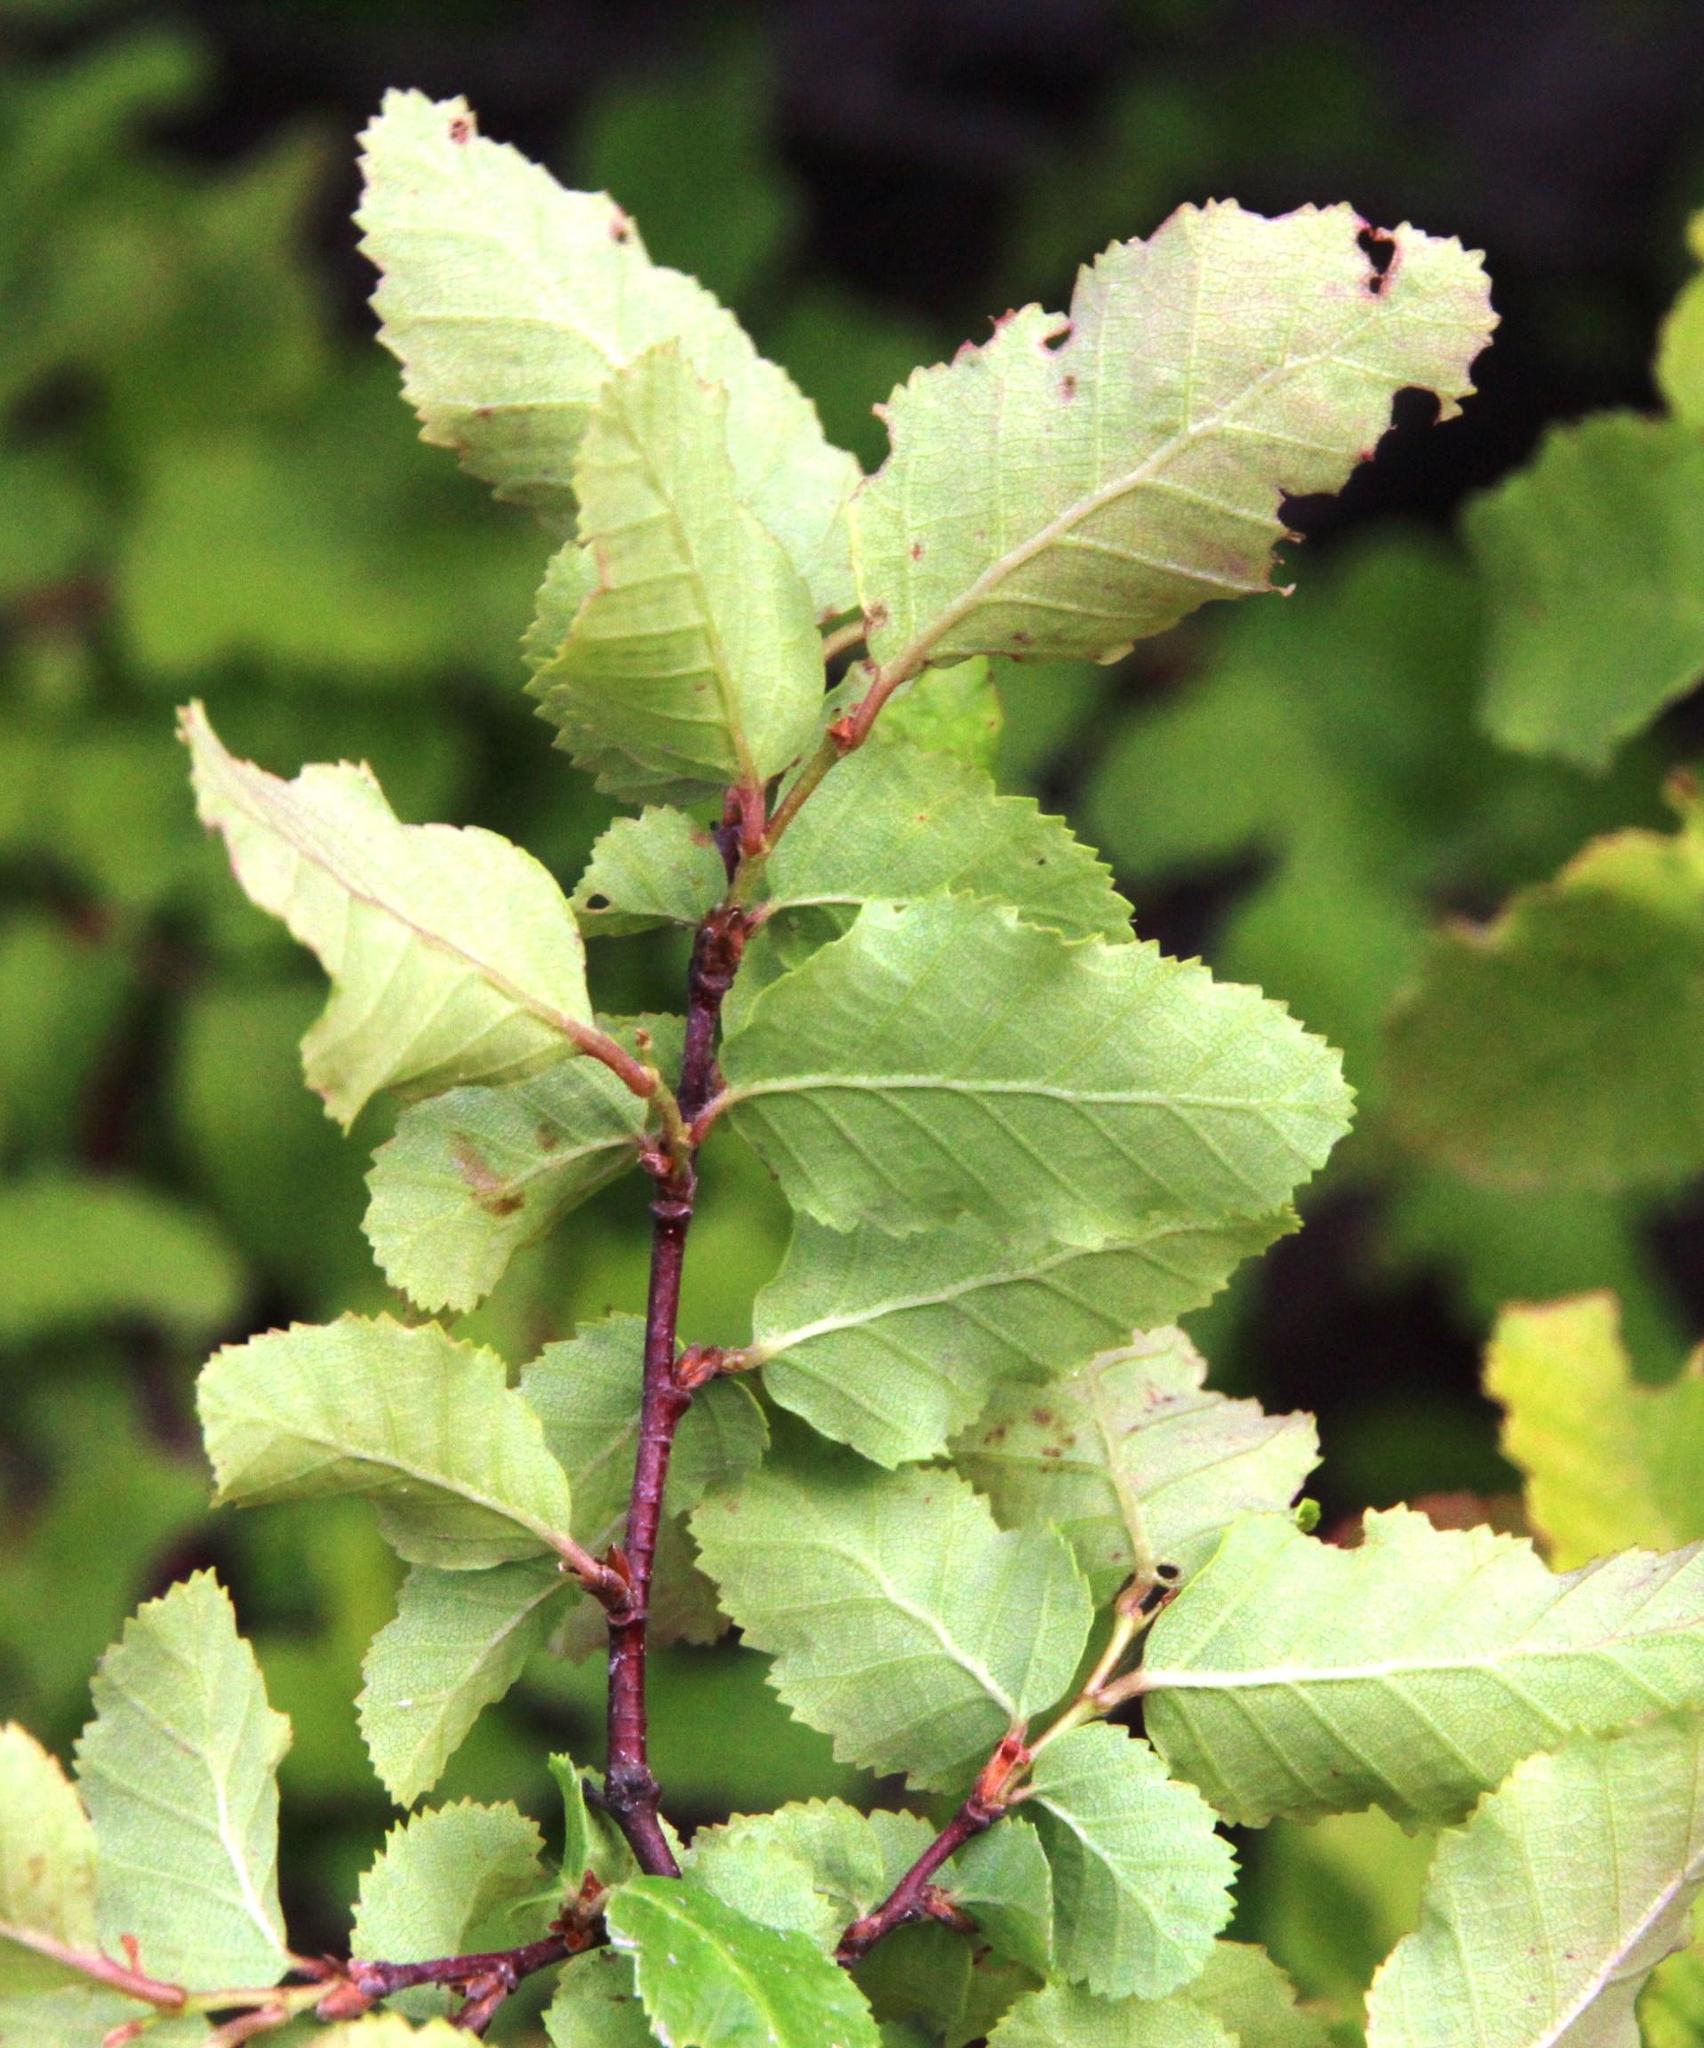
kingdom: Plantae
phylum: Tracheophyta
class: Magnoliopsida
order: Fagales
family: Nothofagaceae
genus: Nothofagus
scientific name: Nothofagus antarctica
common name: Antarctic beech
